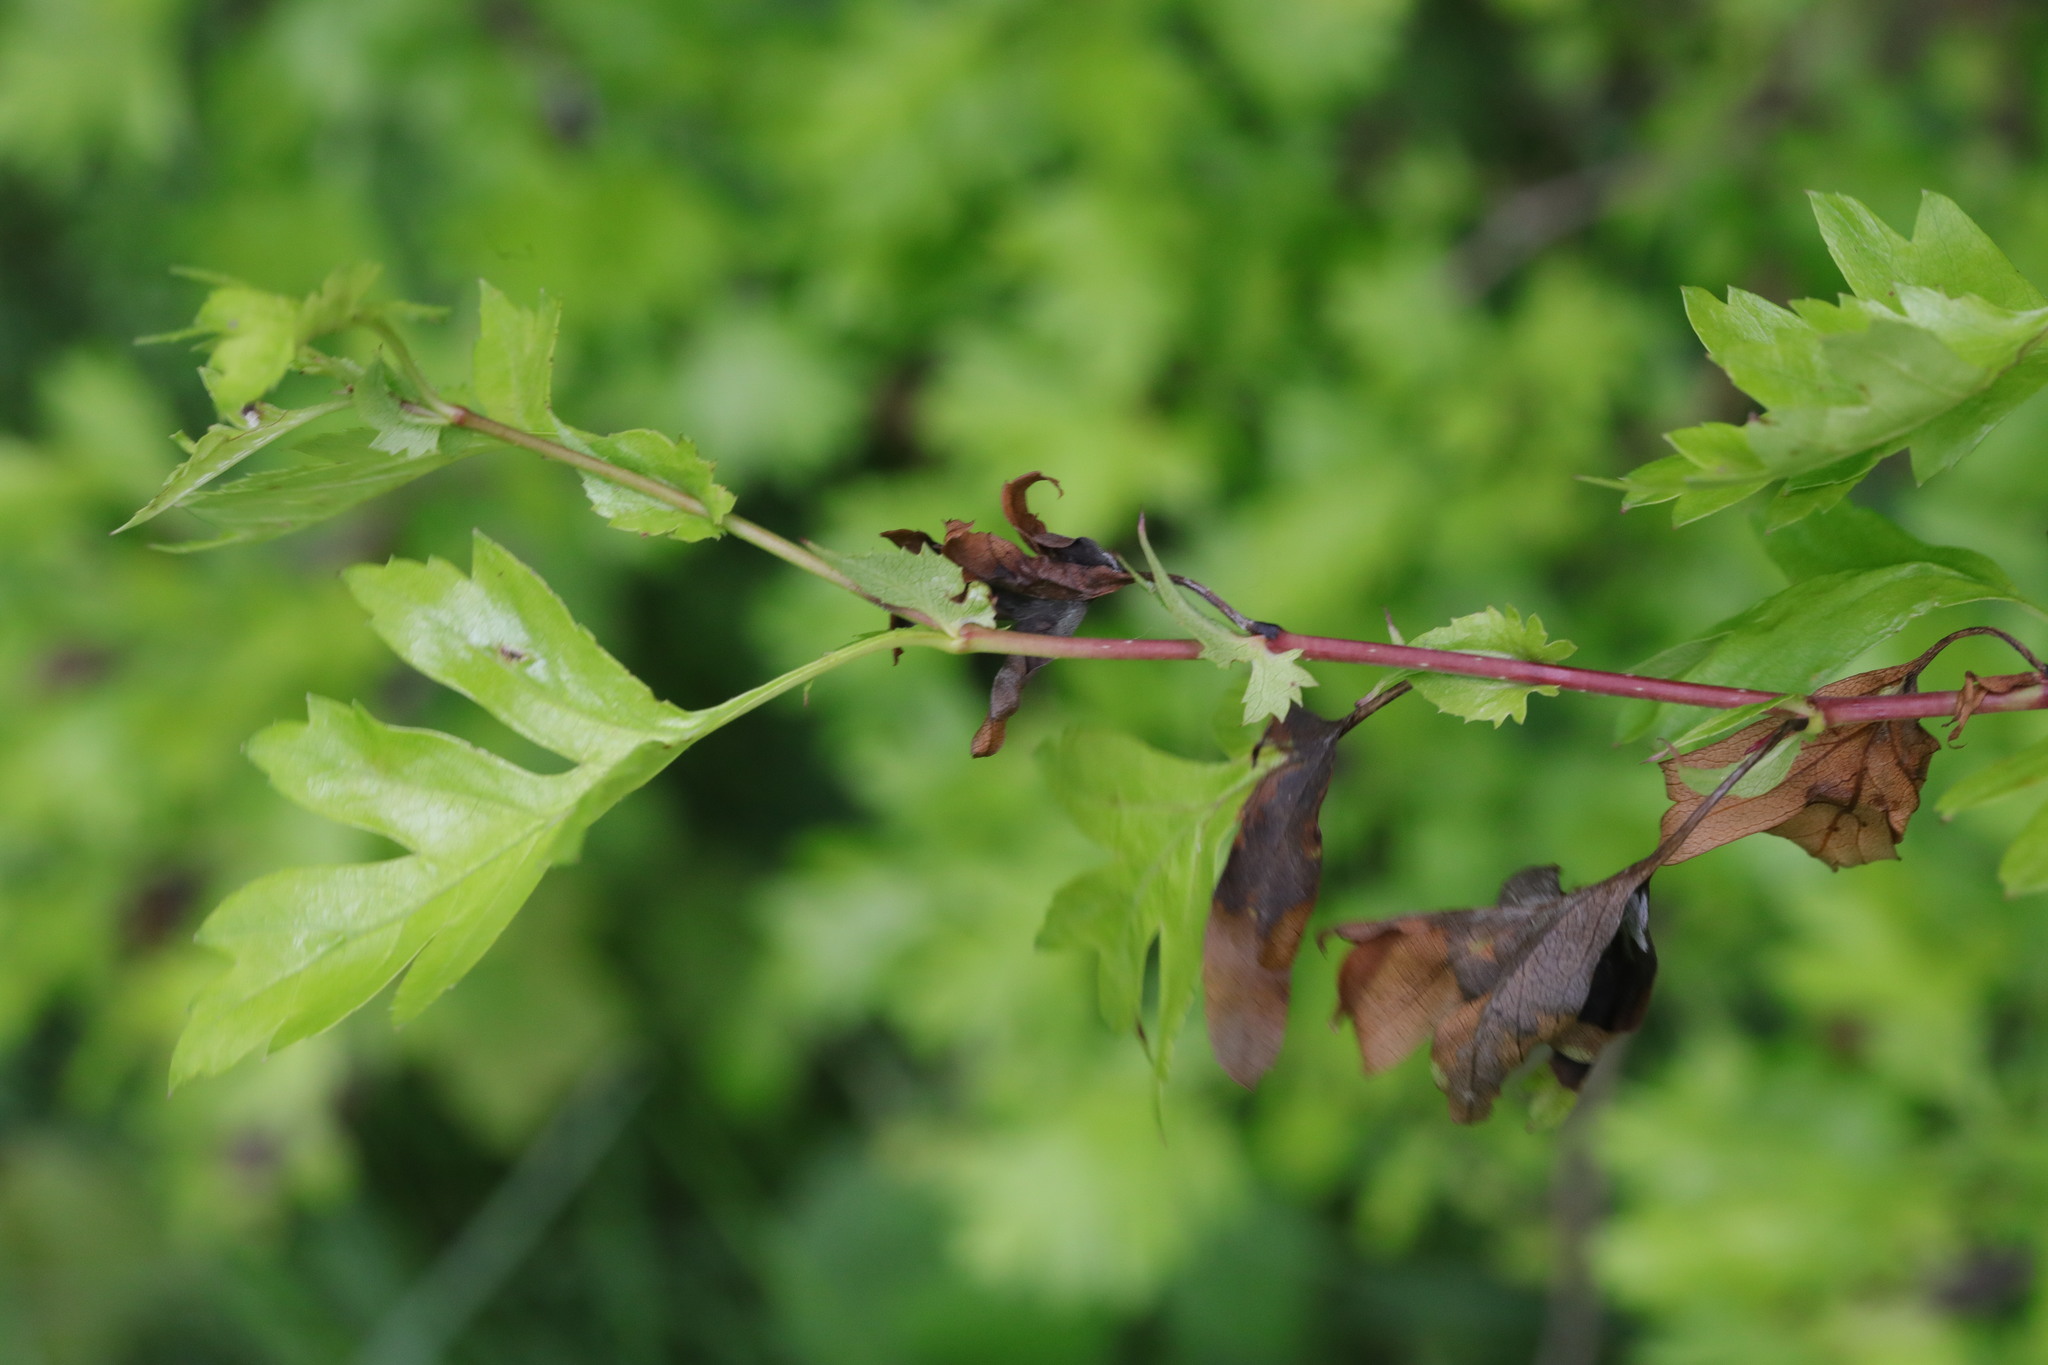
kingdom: Fungi
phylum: Ascomycota
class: Leotiomycetes
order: Helotiales
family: Sclerotiniaceae
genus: Monilinia
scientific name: Monilinia johnsonii
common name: Haw goblet
